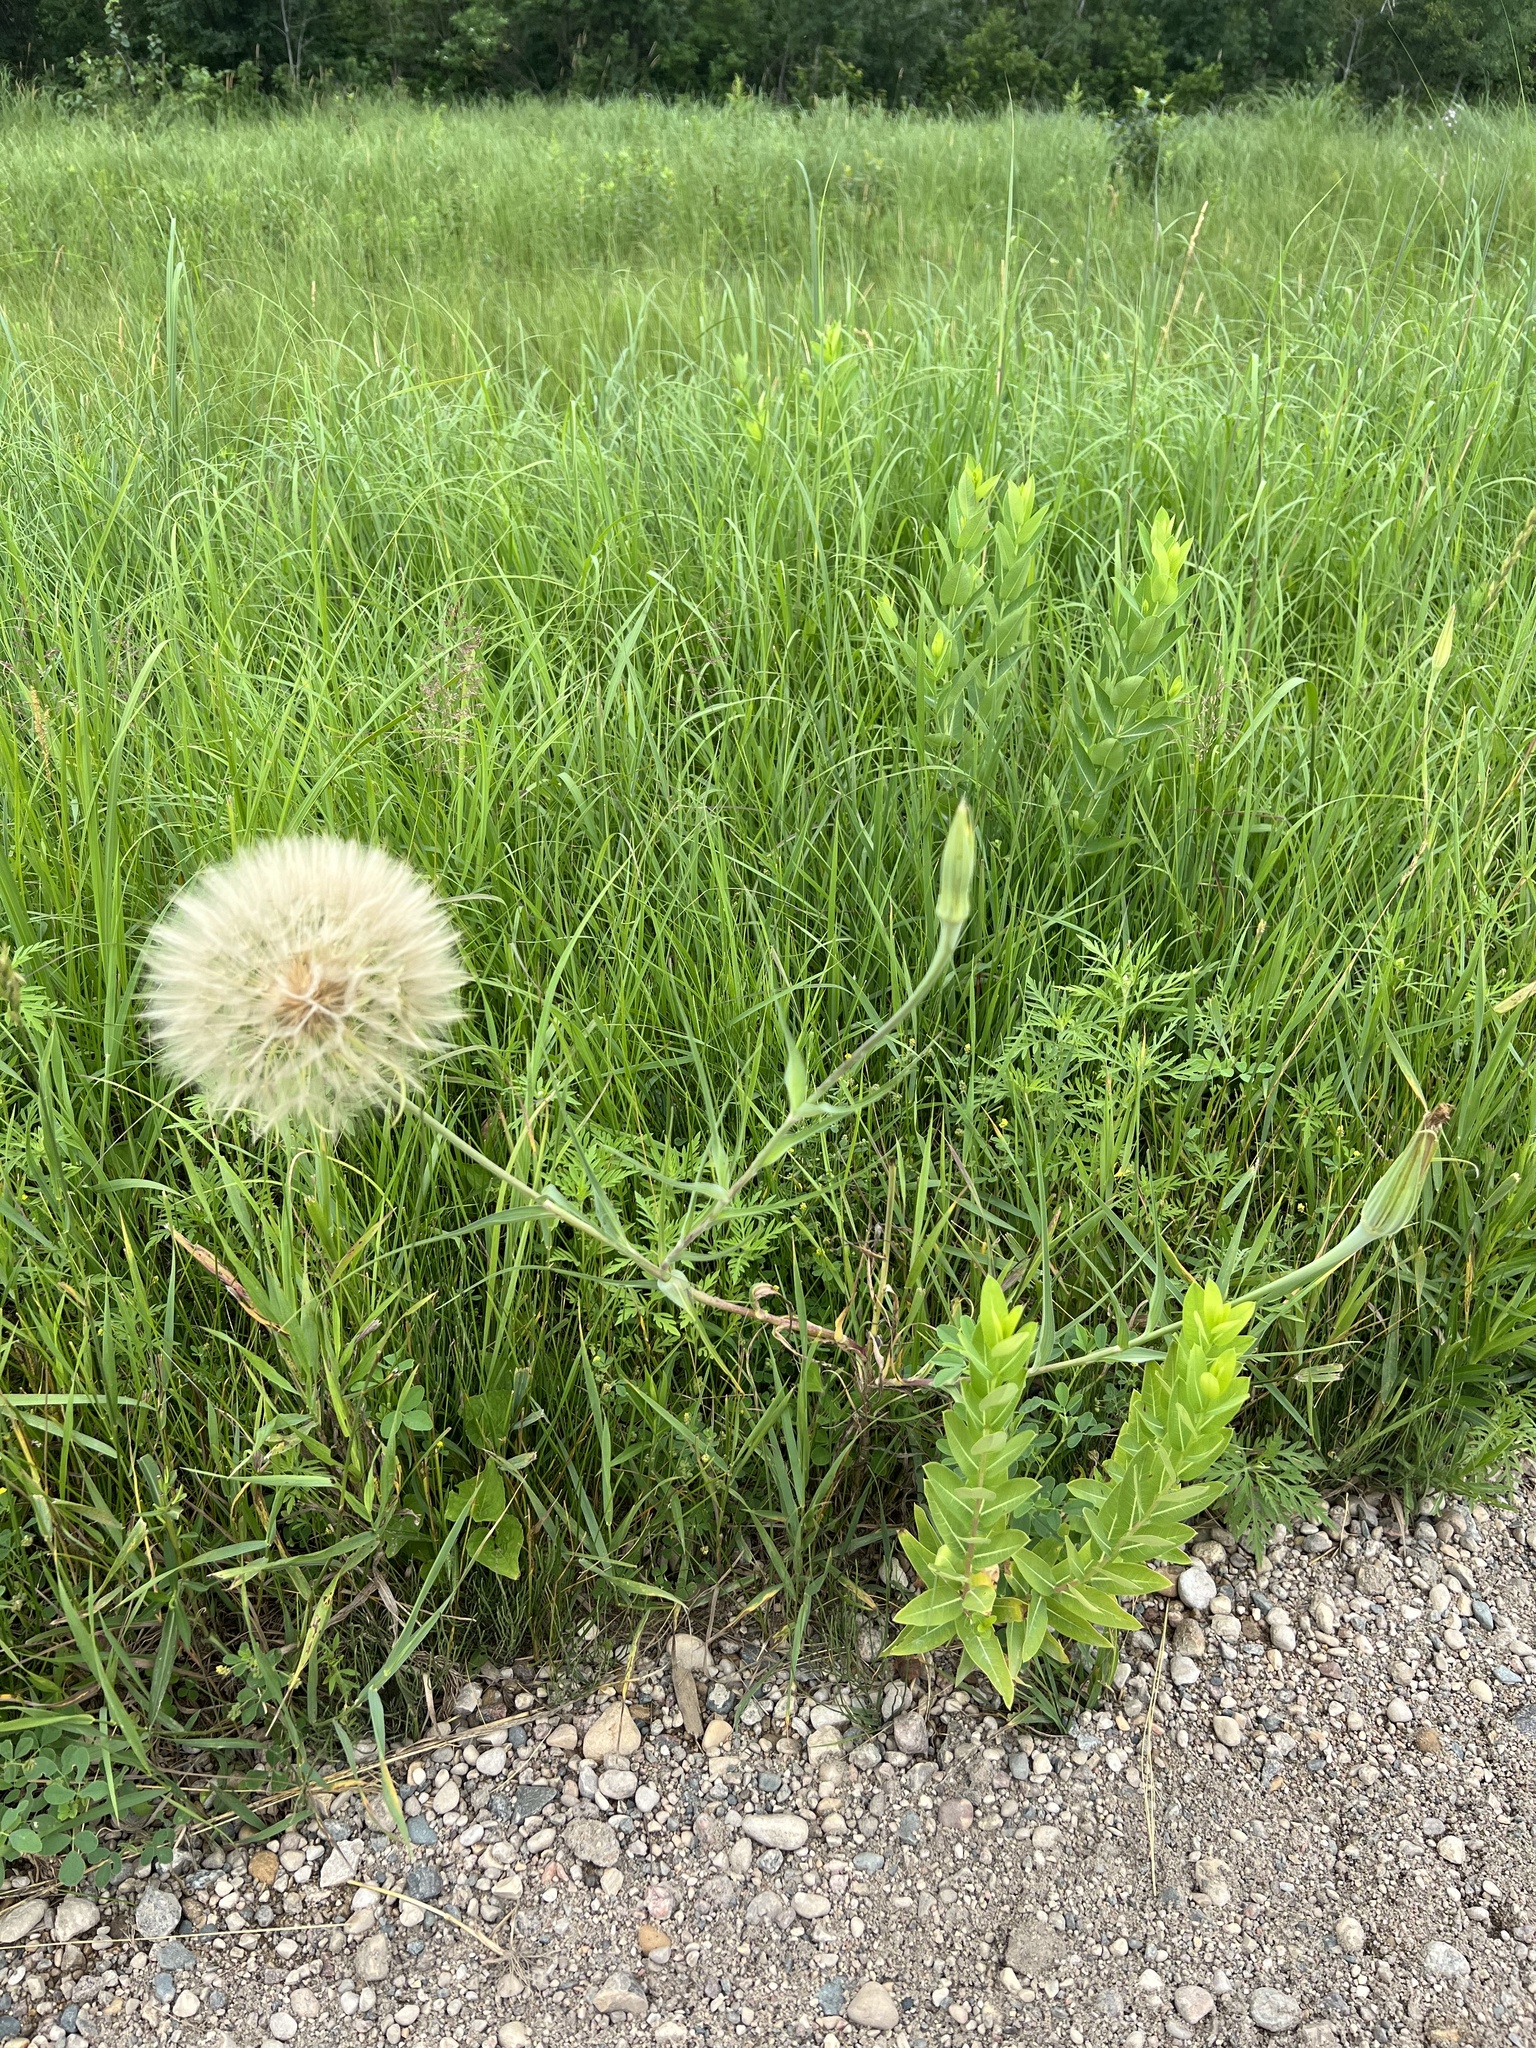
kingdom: Plantae
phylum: Tracheophyta
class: Magnoliopsida
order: Asterales
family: Asteraceae
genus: Tragopogon
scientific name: Tragopogon dubius
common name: Yellow salsify
